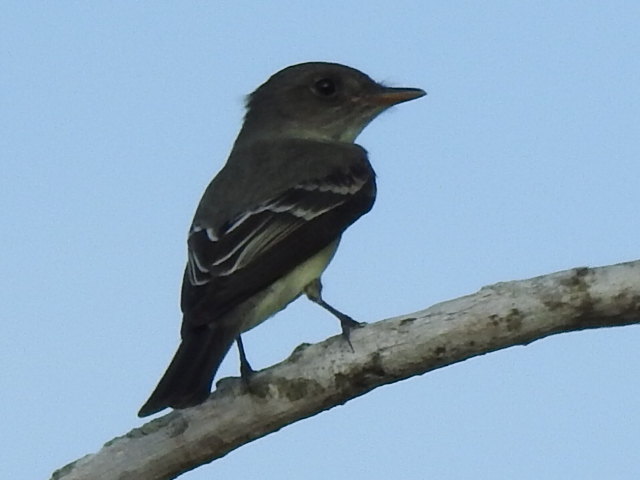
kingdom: Animalia
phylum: Chordata
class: Aves
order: Passeriformes
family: Tyrannidae
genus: Contopus
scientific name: Contopus virens
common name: Eastern wood-pewee
